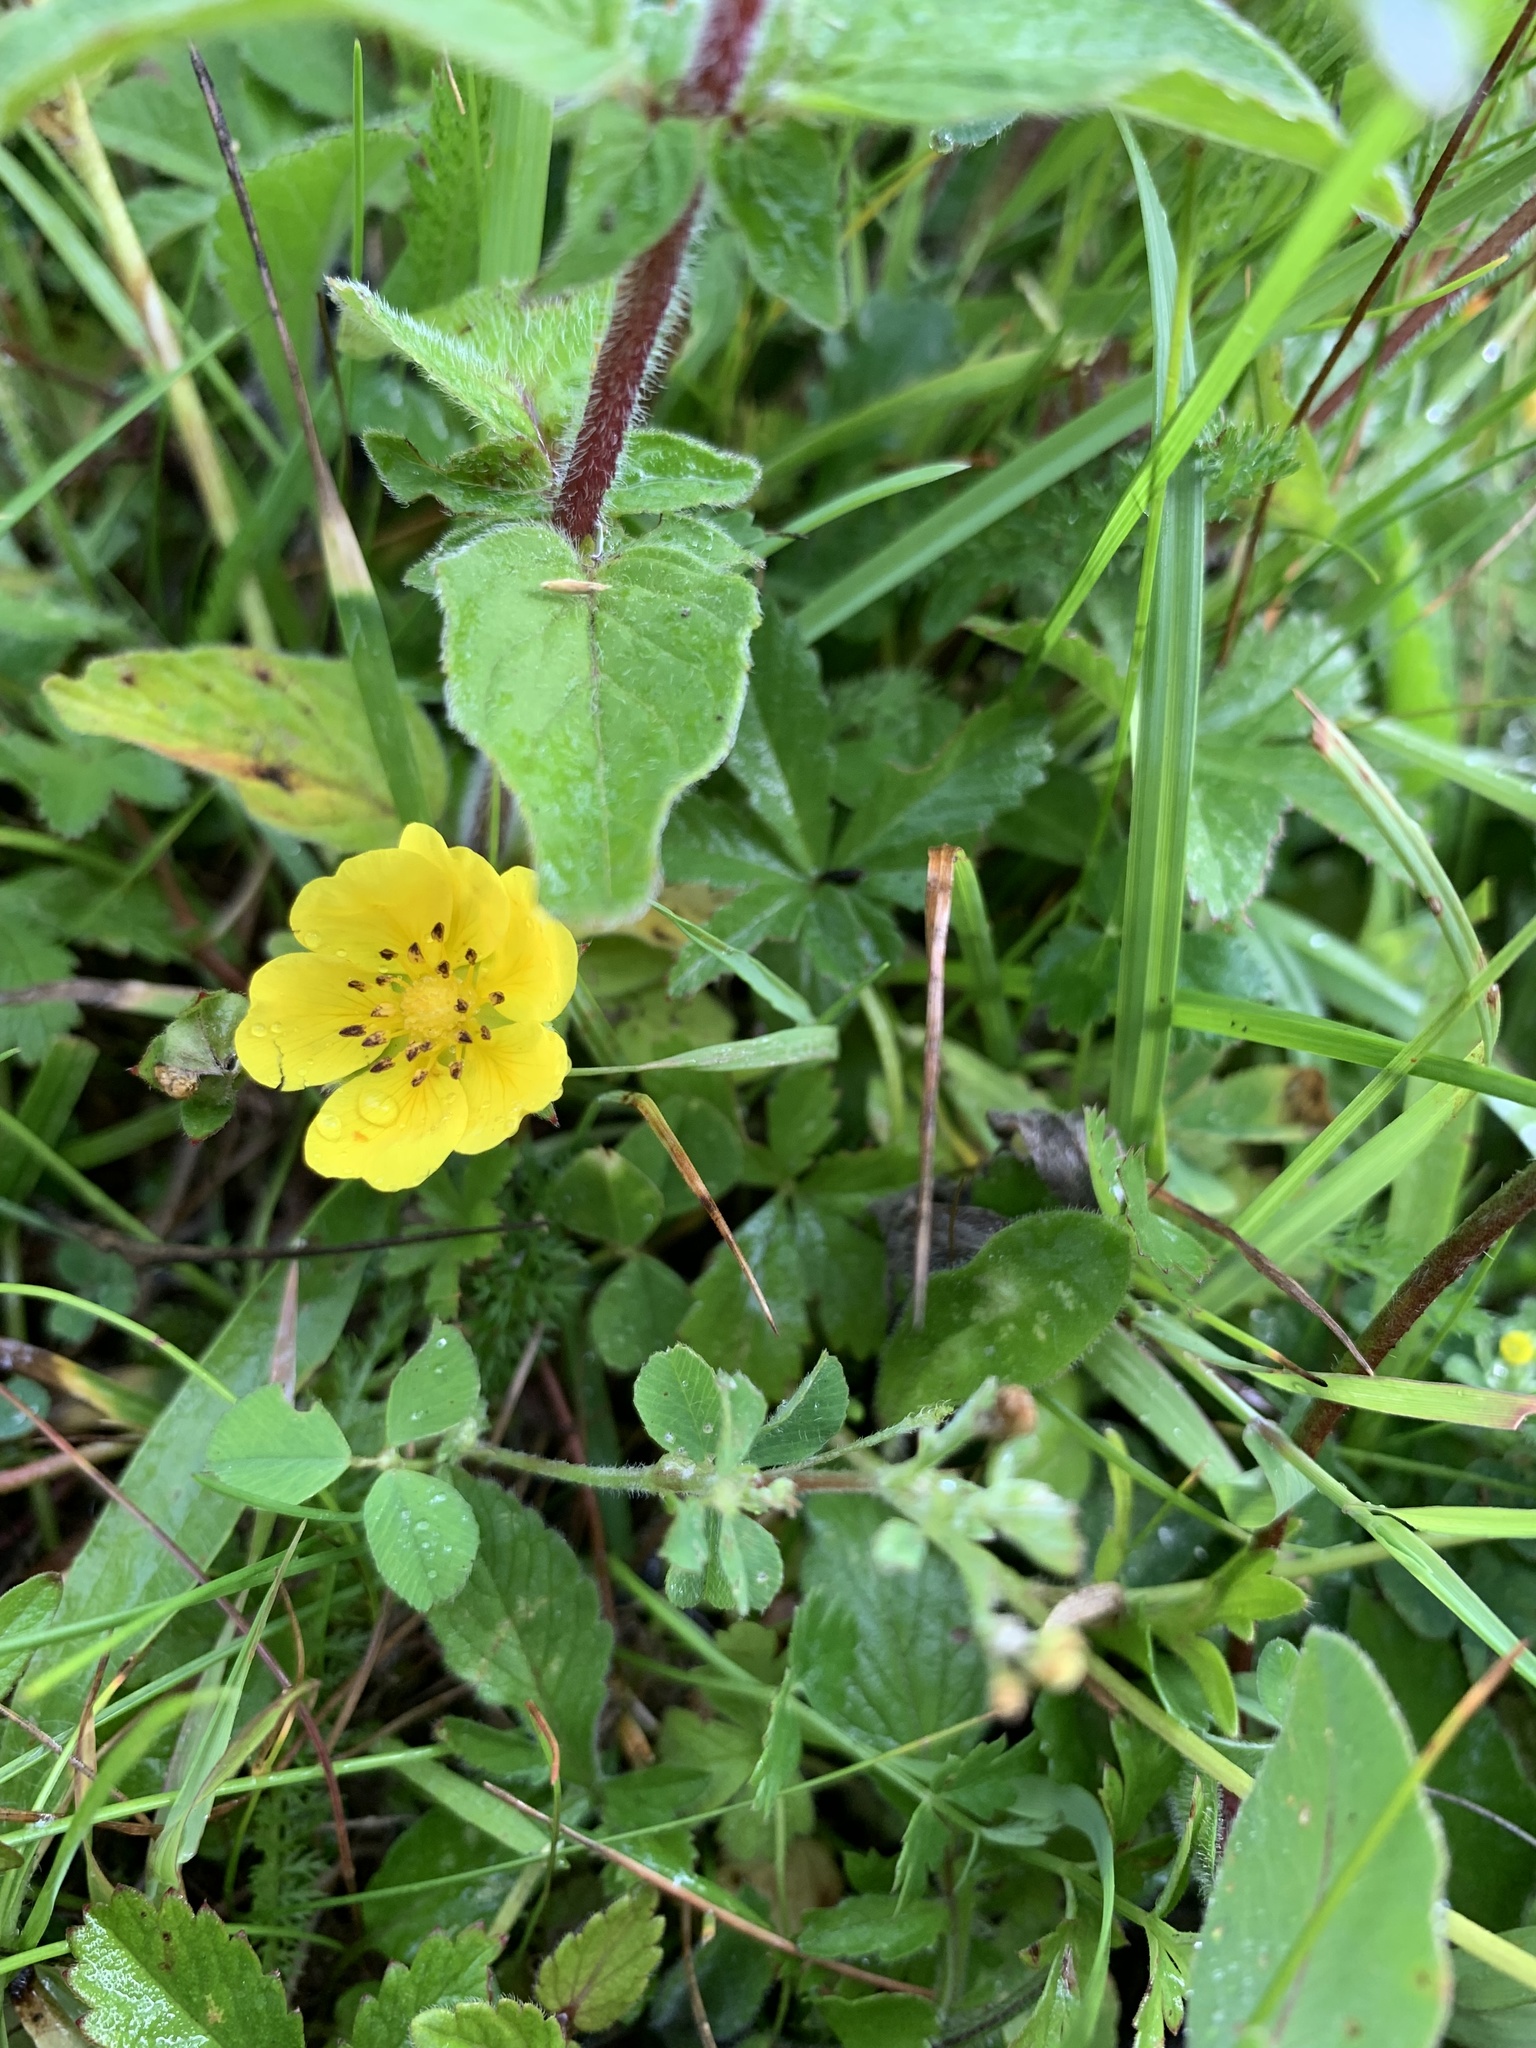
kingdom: Plantae
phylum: Tracheophyta
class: Magnoliopsida
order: Rosales
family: Rosaceae
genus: Potentilla
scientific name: Potentilla reptans
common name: Creeping cinquefoil
